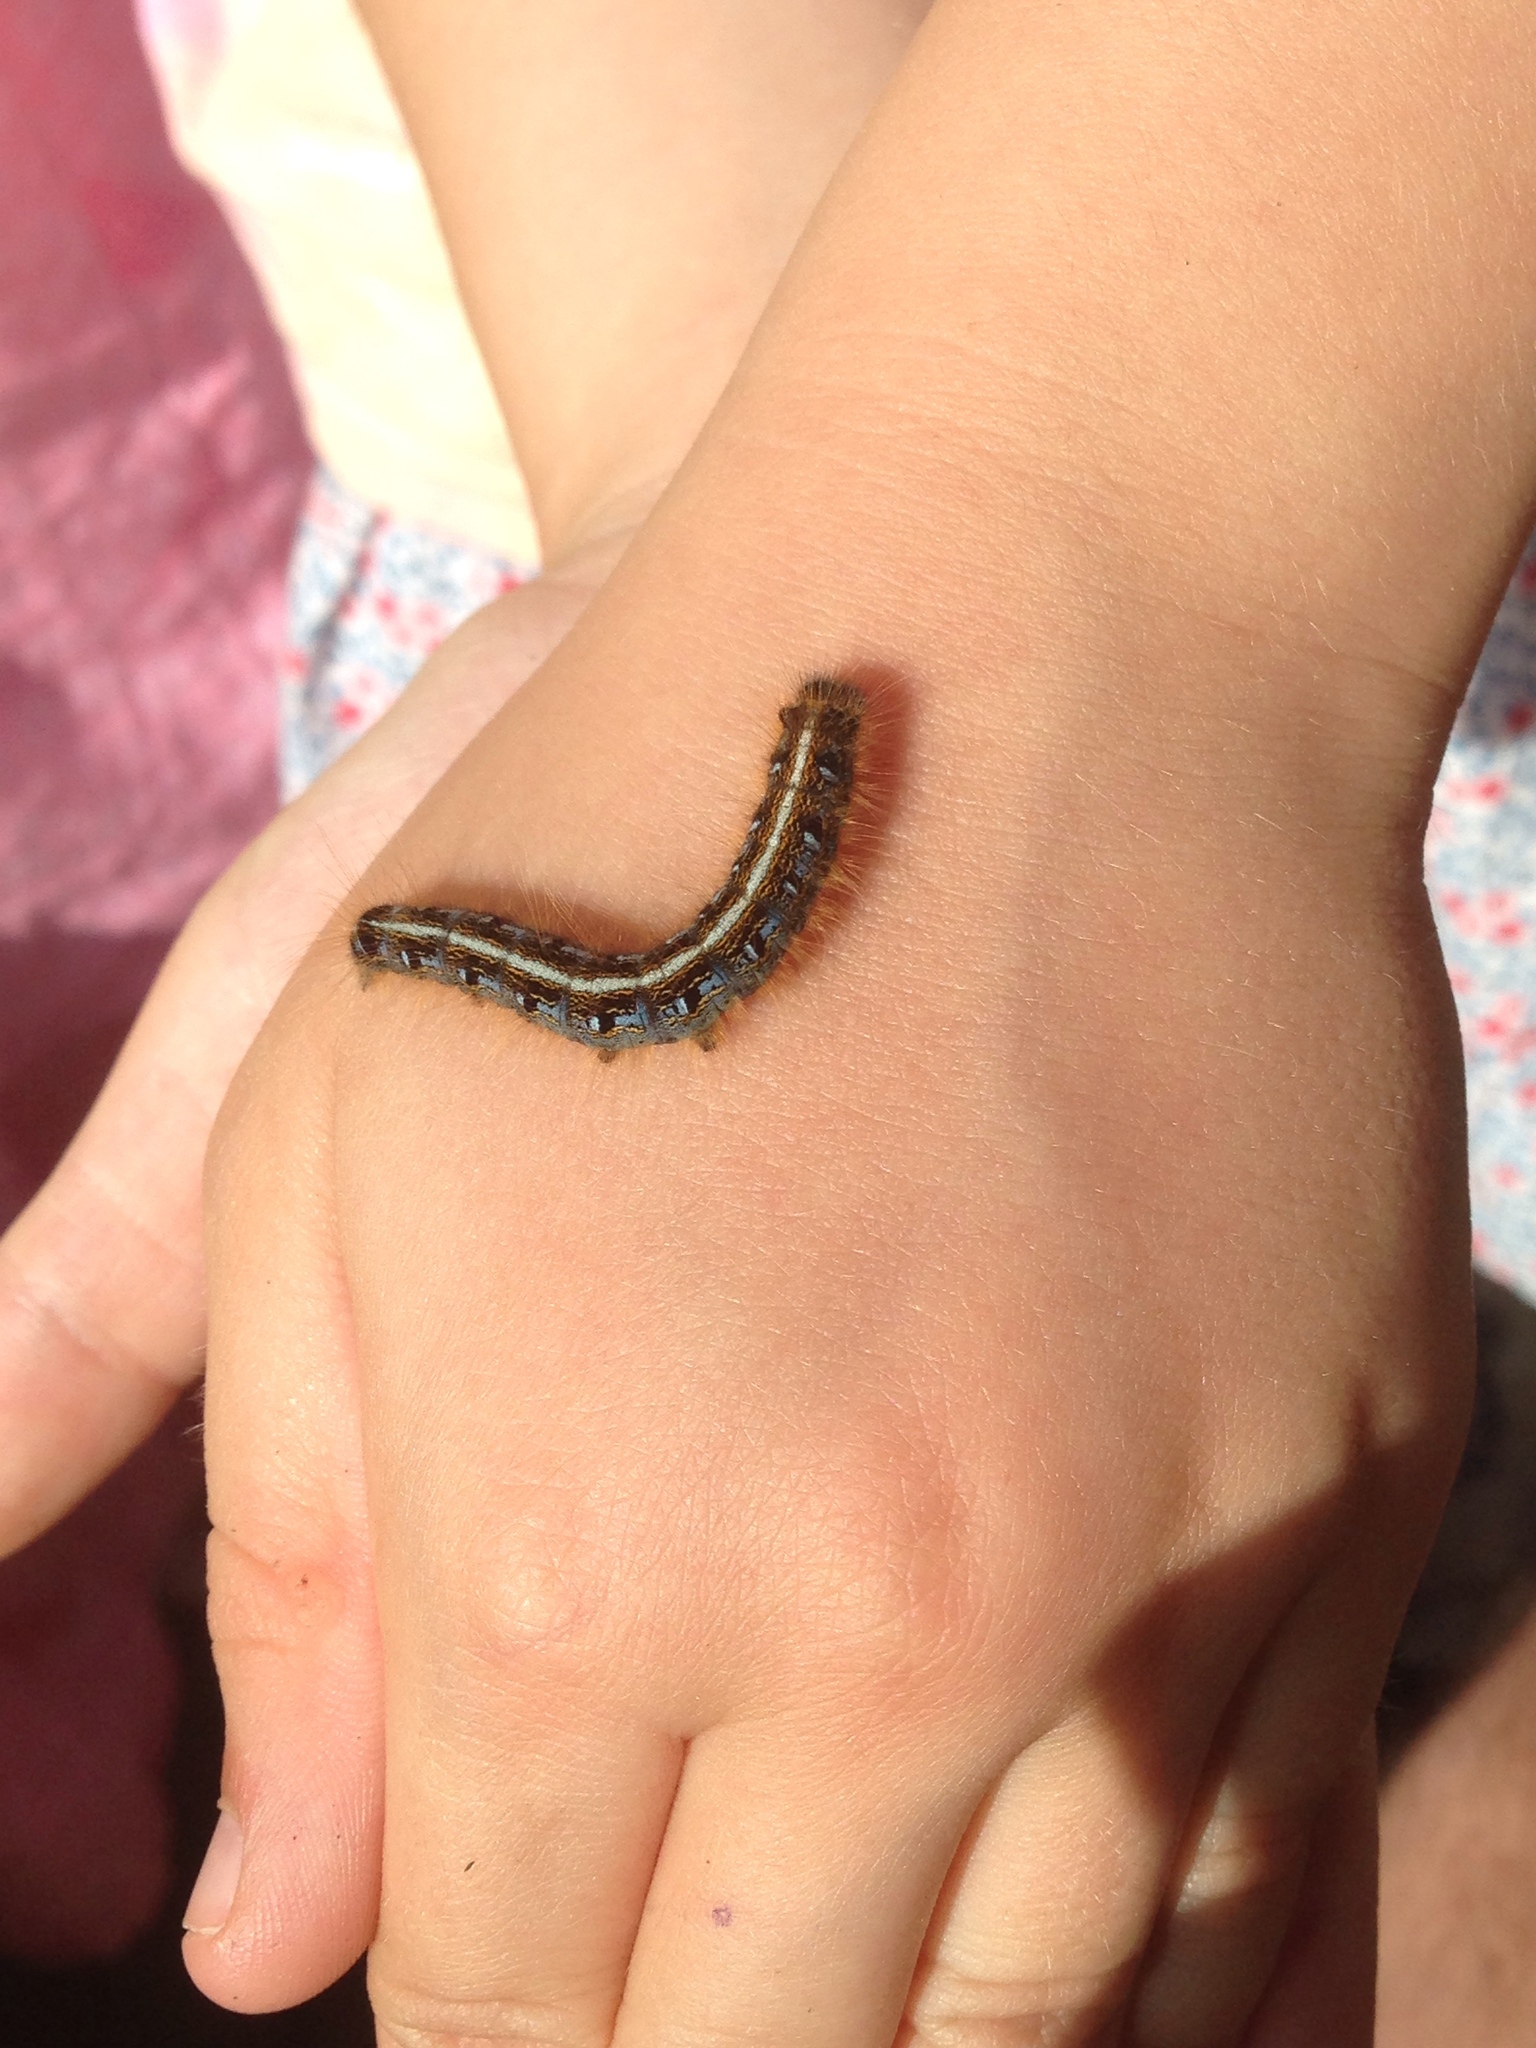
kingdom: Animalia
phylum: Arthropoda
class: Insecta
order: Lepidoptera
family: Lasiocampidae
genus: Malacosoma
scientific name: Malacosoma americana
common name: Eastern tent caterpillar moth
